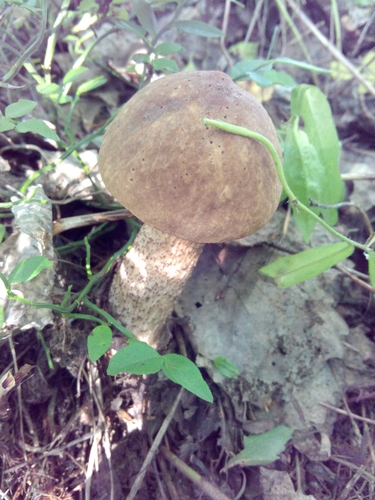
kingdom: Fungi
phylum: Basidiomycota
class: Agaricomycetes
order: Boletales
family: Boletaceae
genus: Leccinum
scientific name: Leccinum scabrum
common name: Blushing bolete
